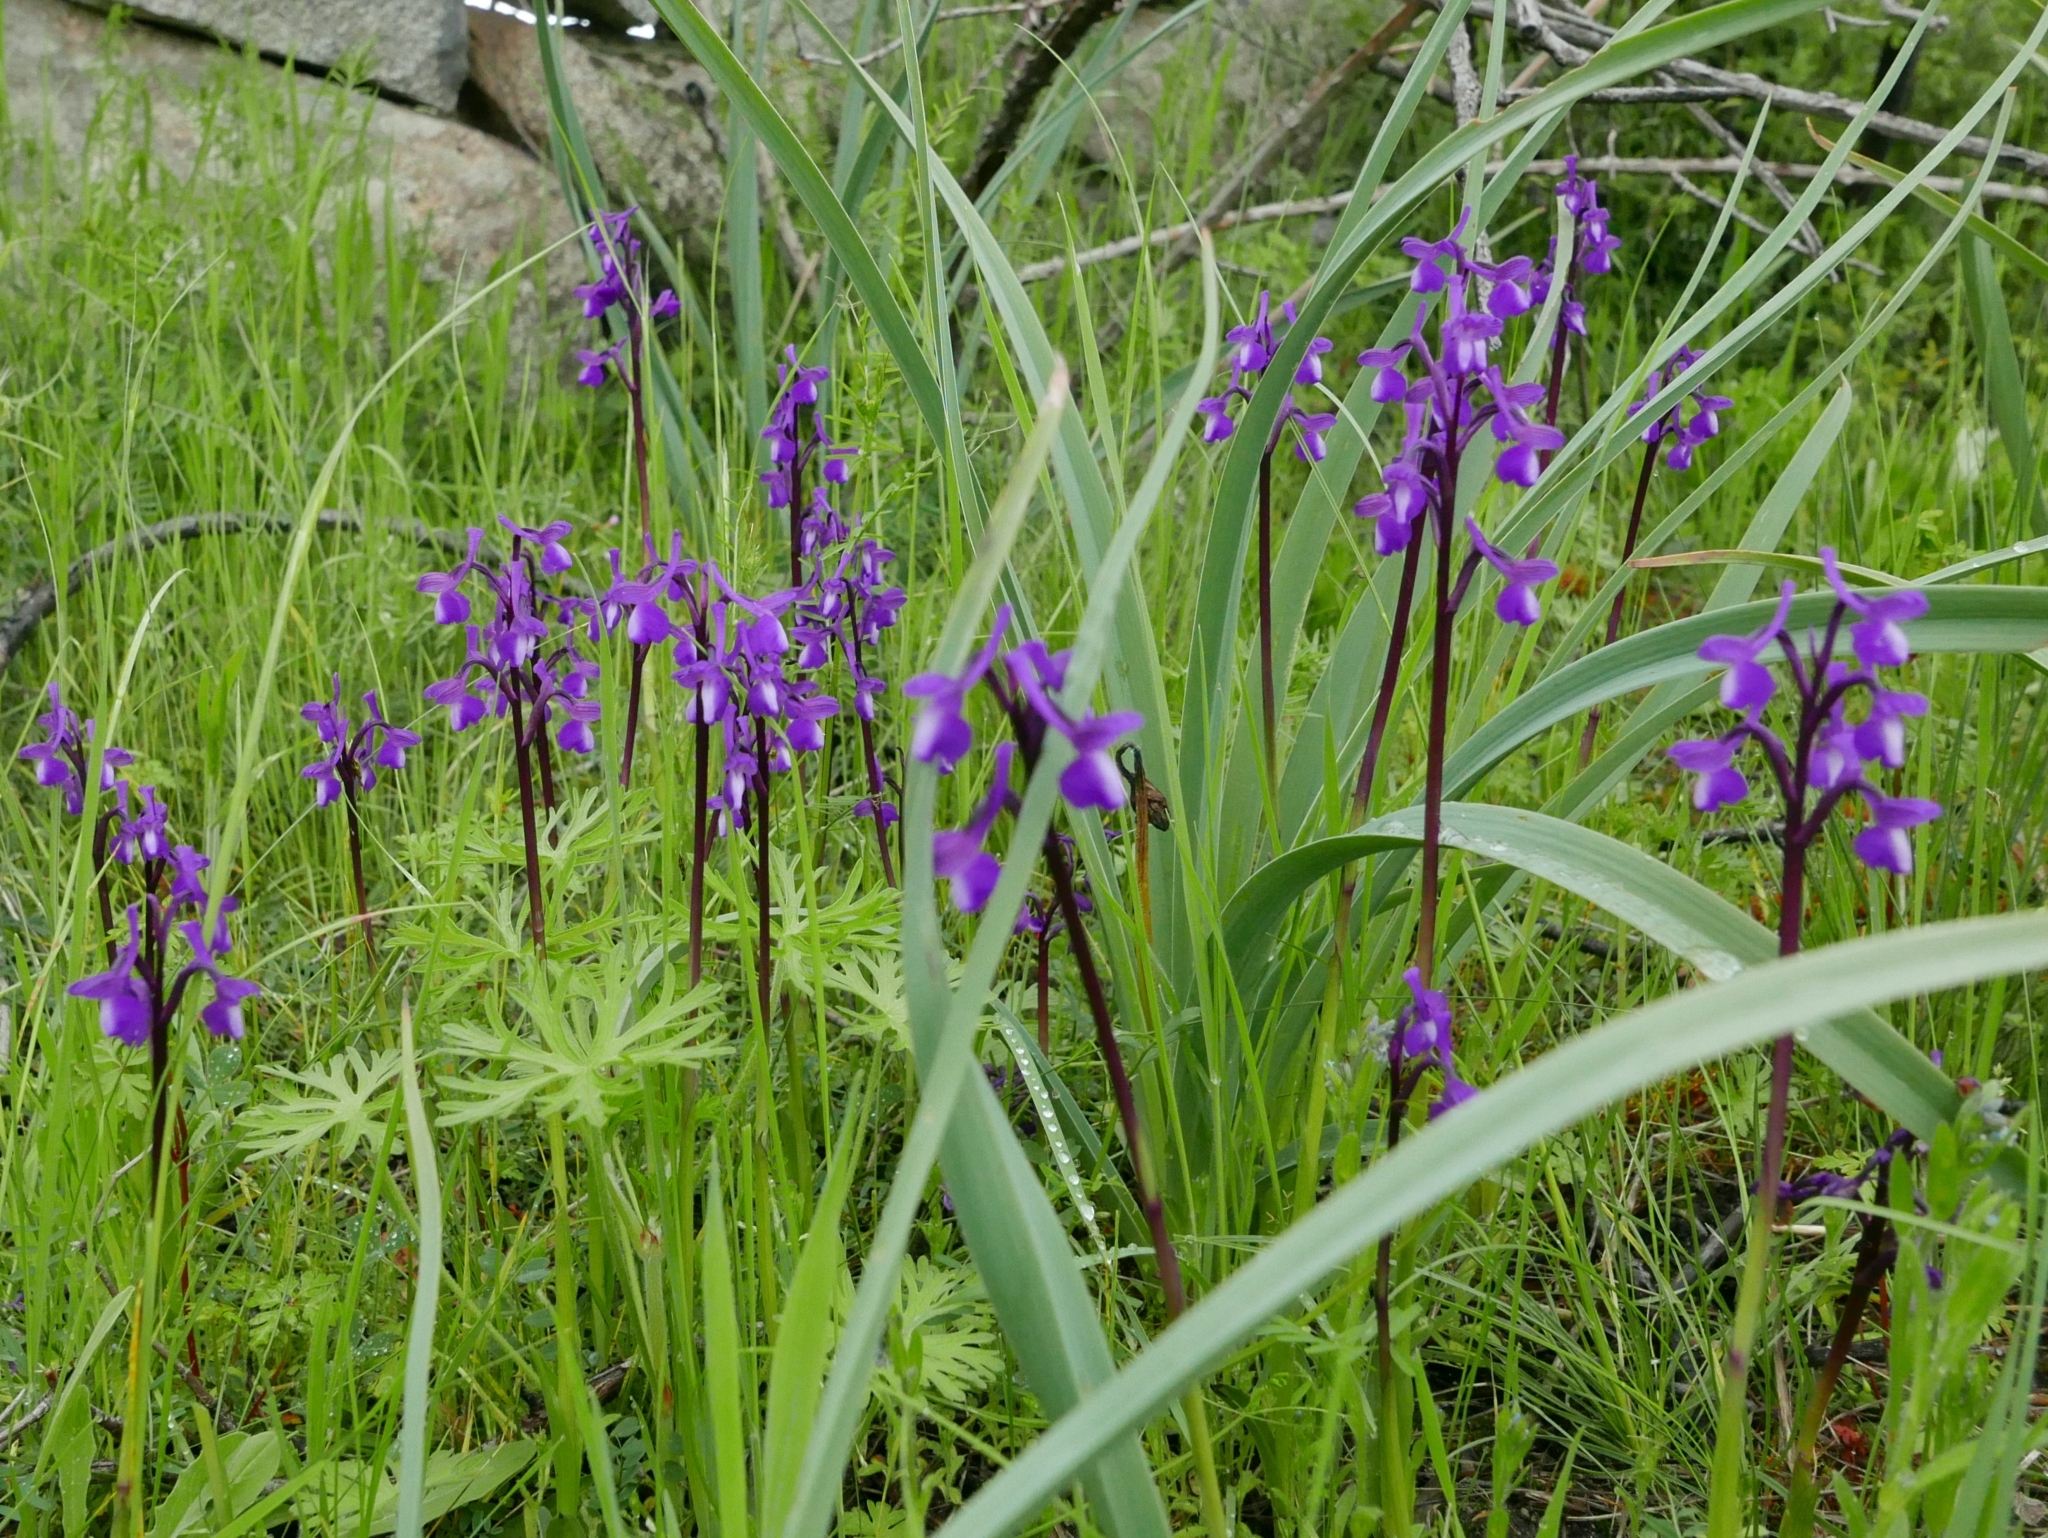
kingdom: Plantae
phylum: Tracheophyta
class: Liliopsida
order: Asparagales
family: Orchidaceae
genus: Anacamptis
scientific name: Anacamptis morio
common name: Green-winged orchid
